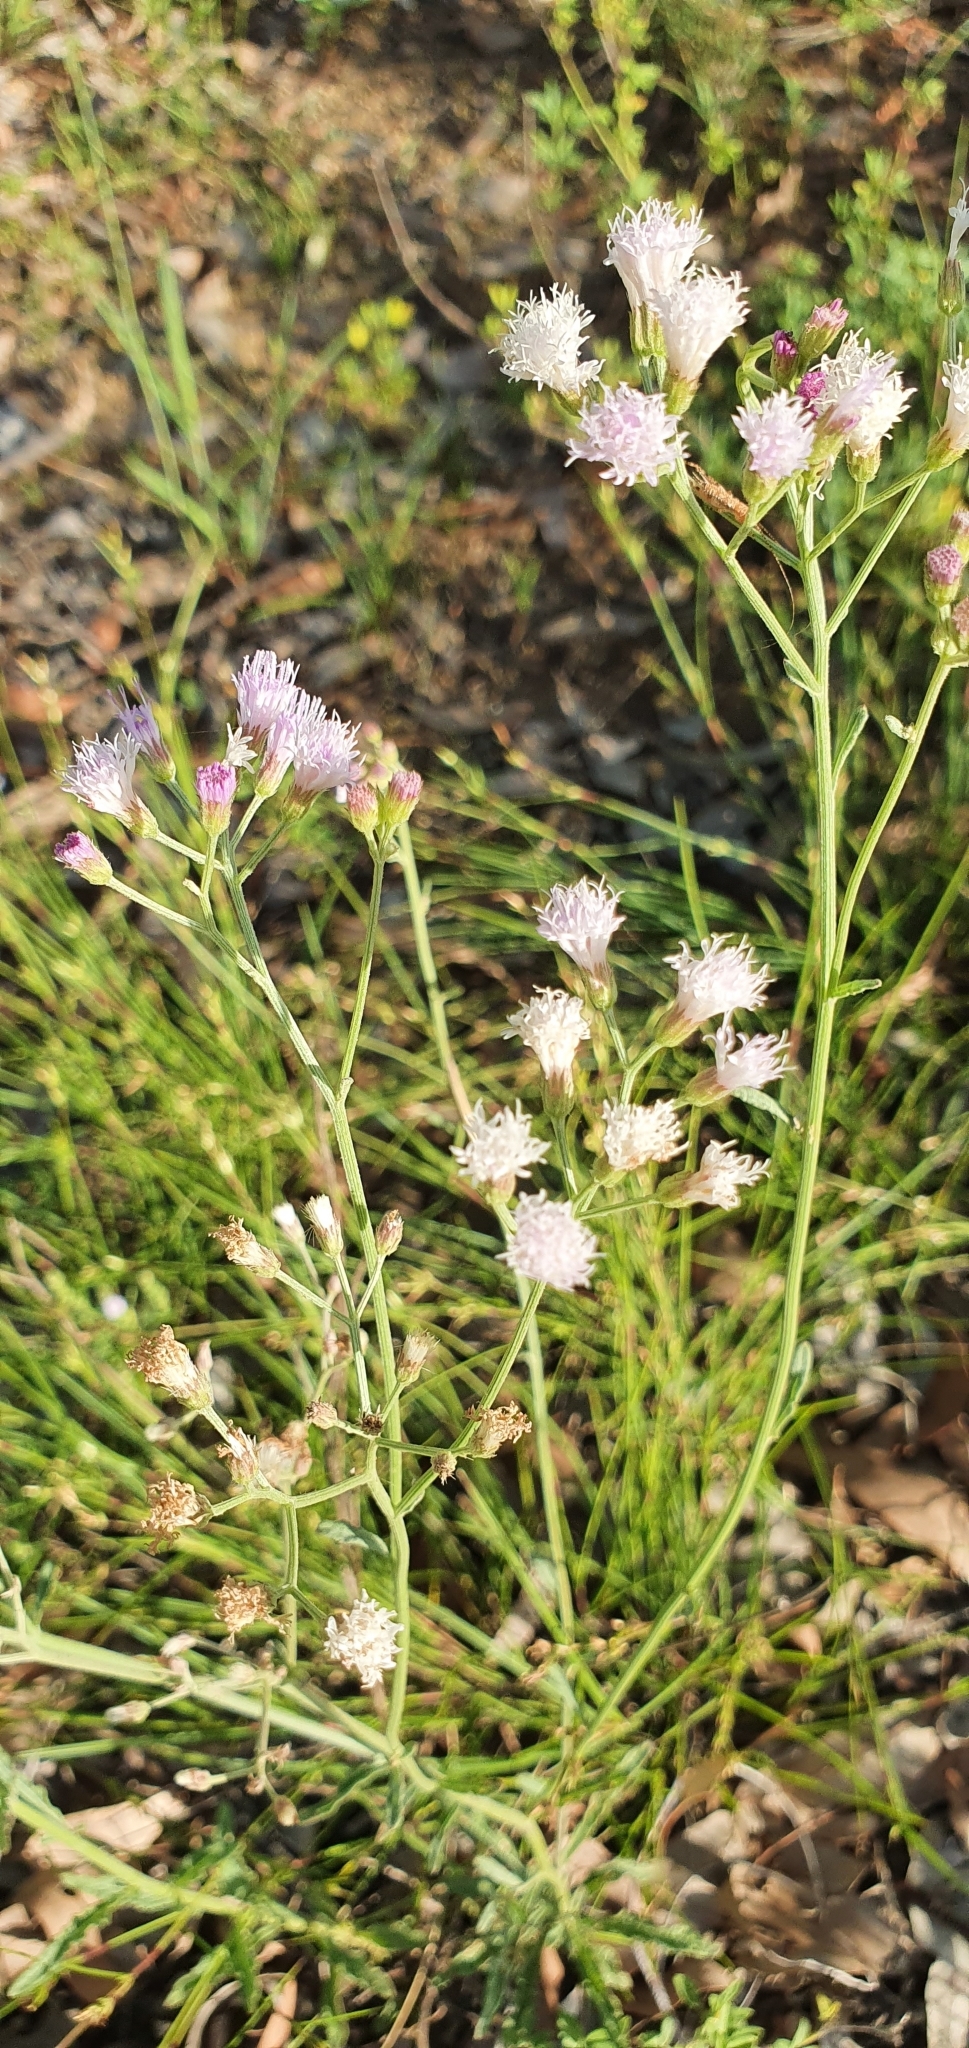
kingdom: Plantae
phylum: Tracheophyta
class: Magnoliopsida
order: Asterales
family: Asteraceae
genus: Cyanthillium
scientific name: Cyanthillium cinereum
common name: Little ironweed
